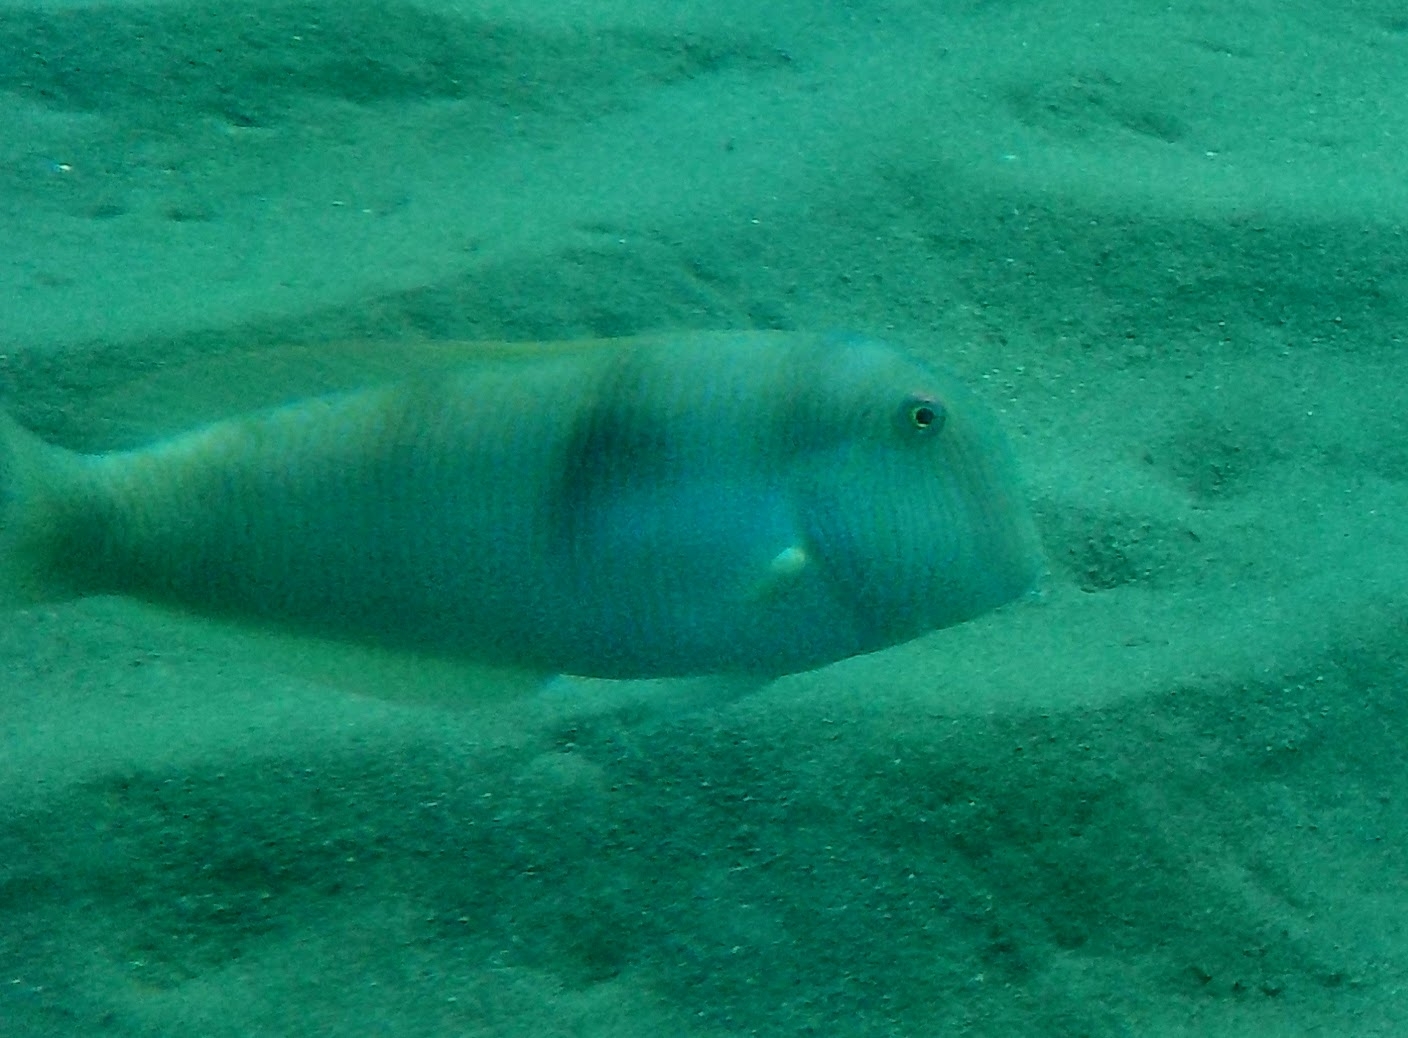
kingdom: Animalia
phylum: Chordata
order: Perciformes
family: Labridae
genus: Xyrichtys
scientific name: Xyrichtys novacula
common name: Pearly razorfish
